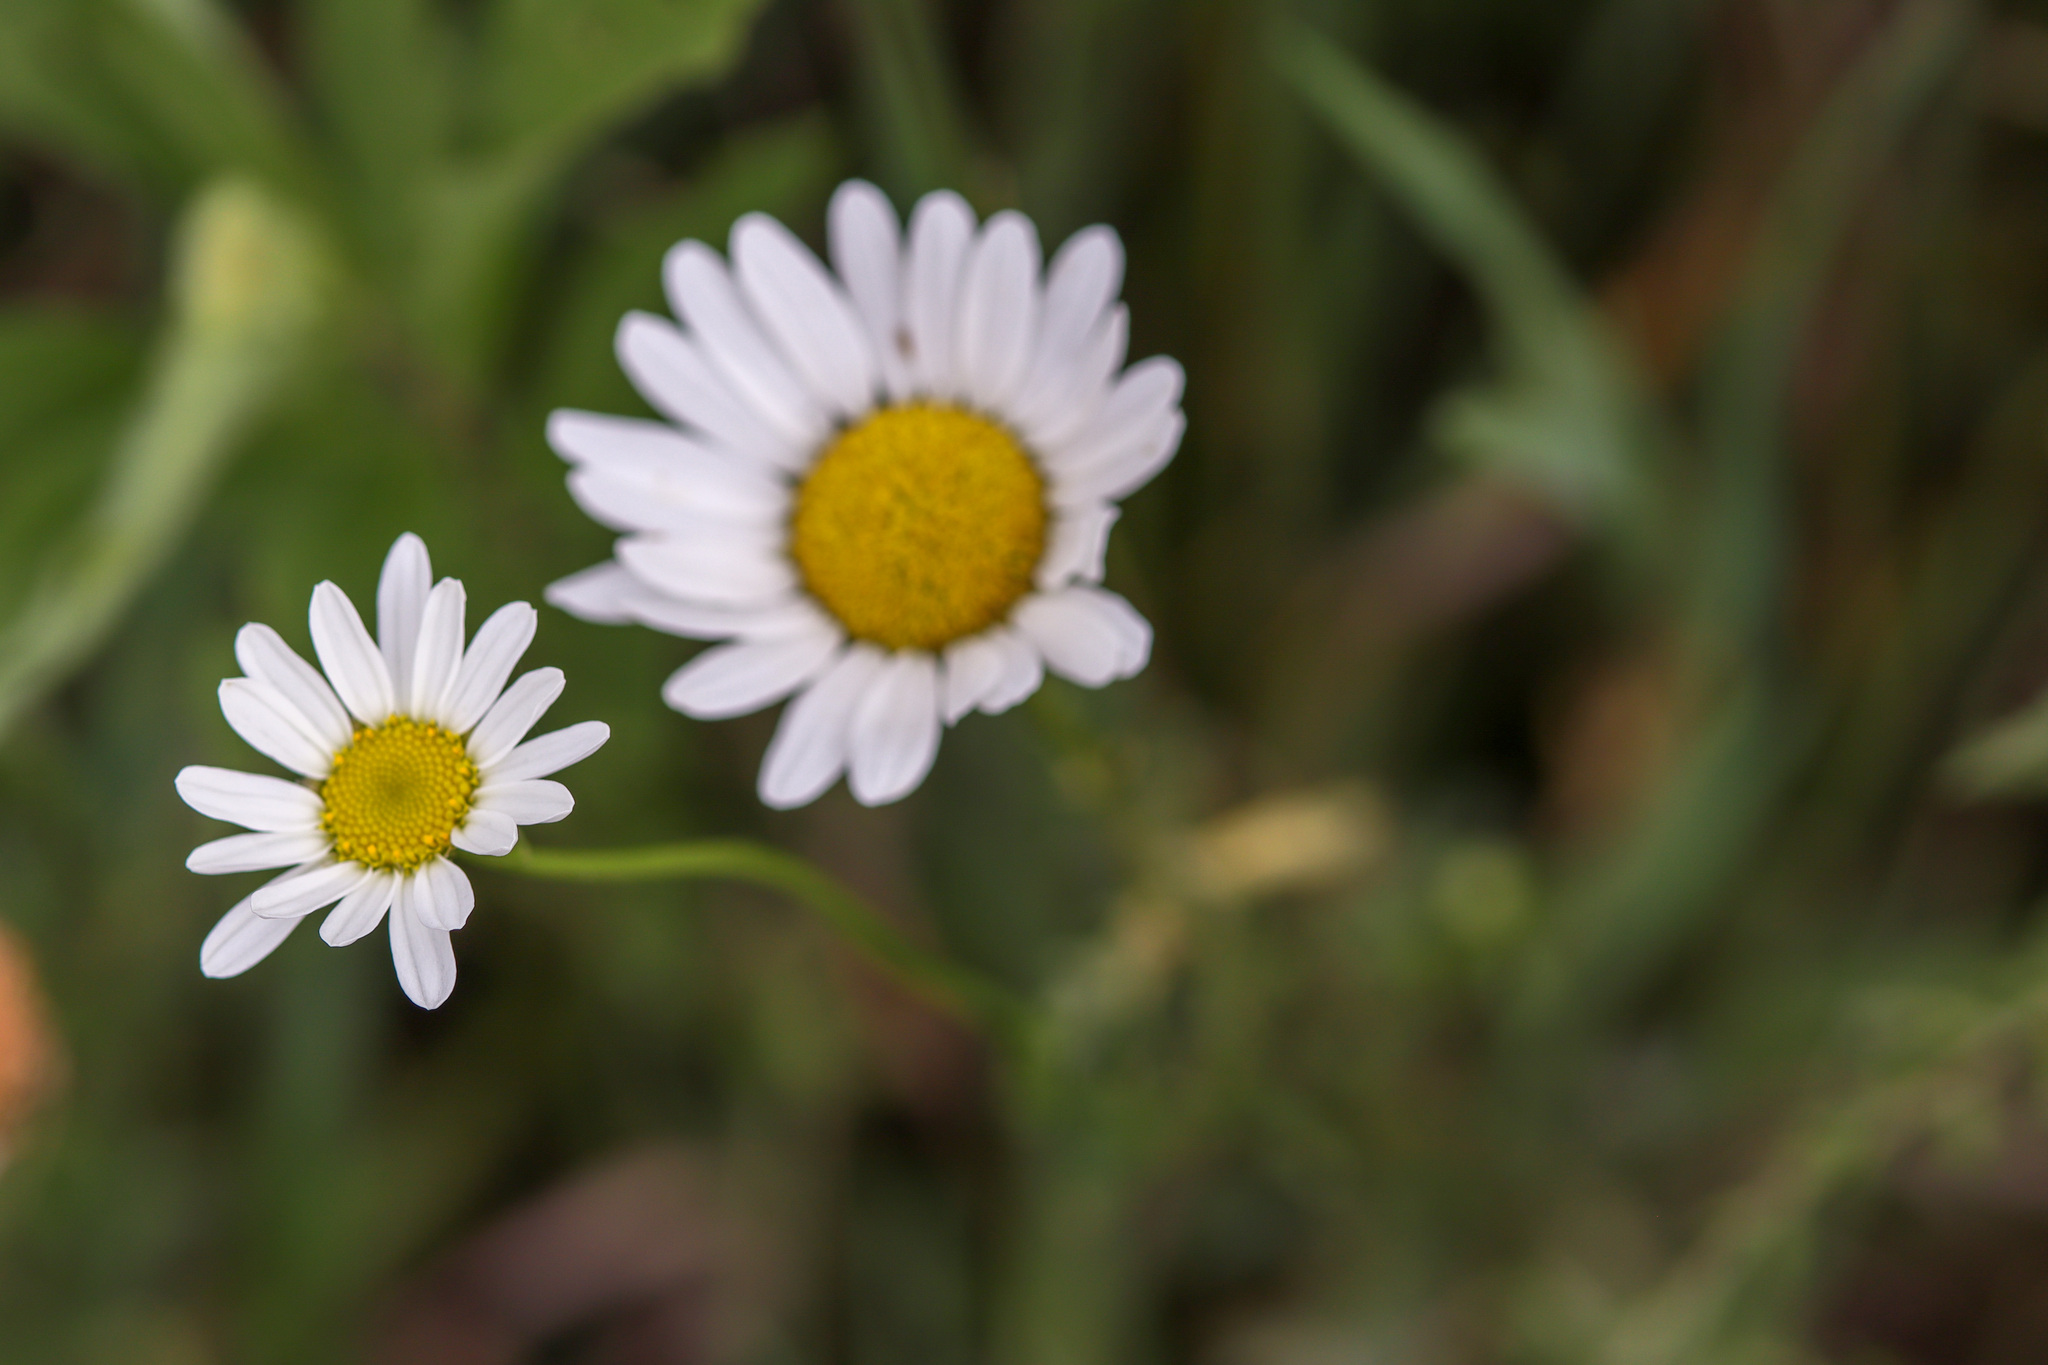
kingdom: Plantae
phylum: Tracheophyta
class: Magnoliopsida
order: Asterales
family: Asteraceae
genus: Leucanthemum
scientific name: Leucanthemum vulgare
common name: Oxeye daisy
